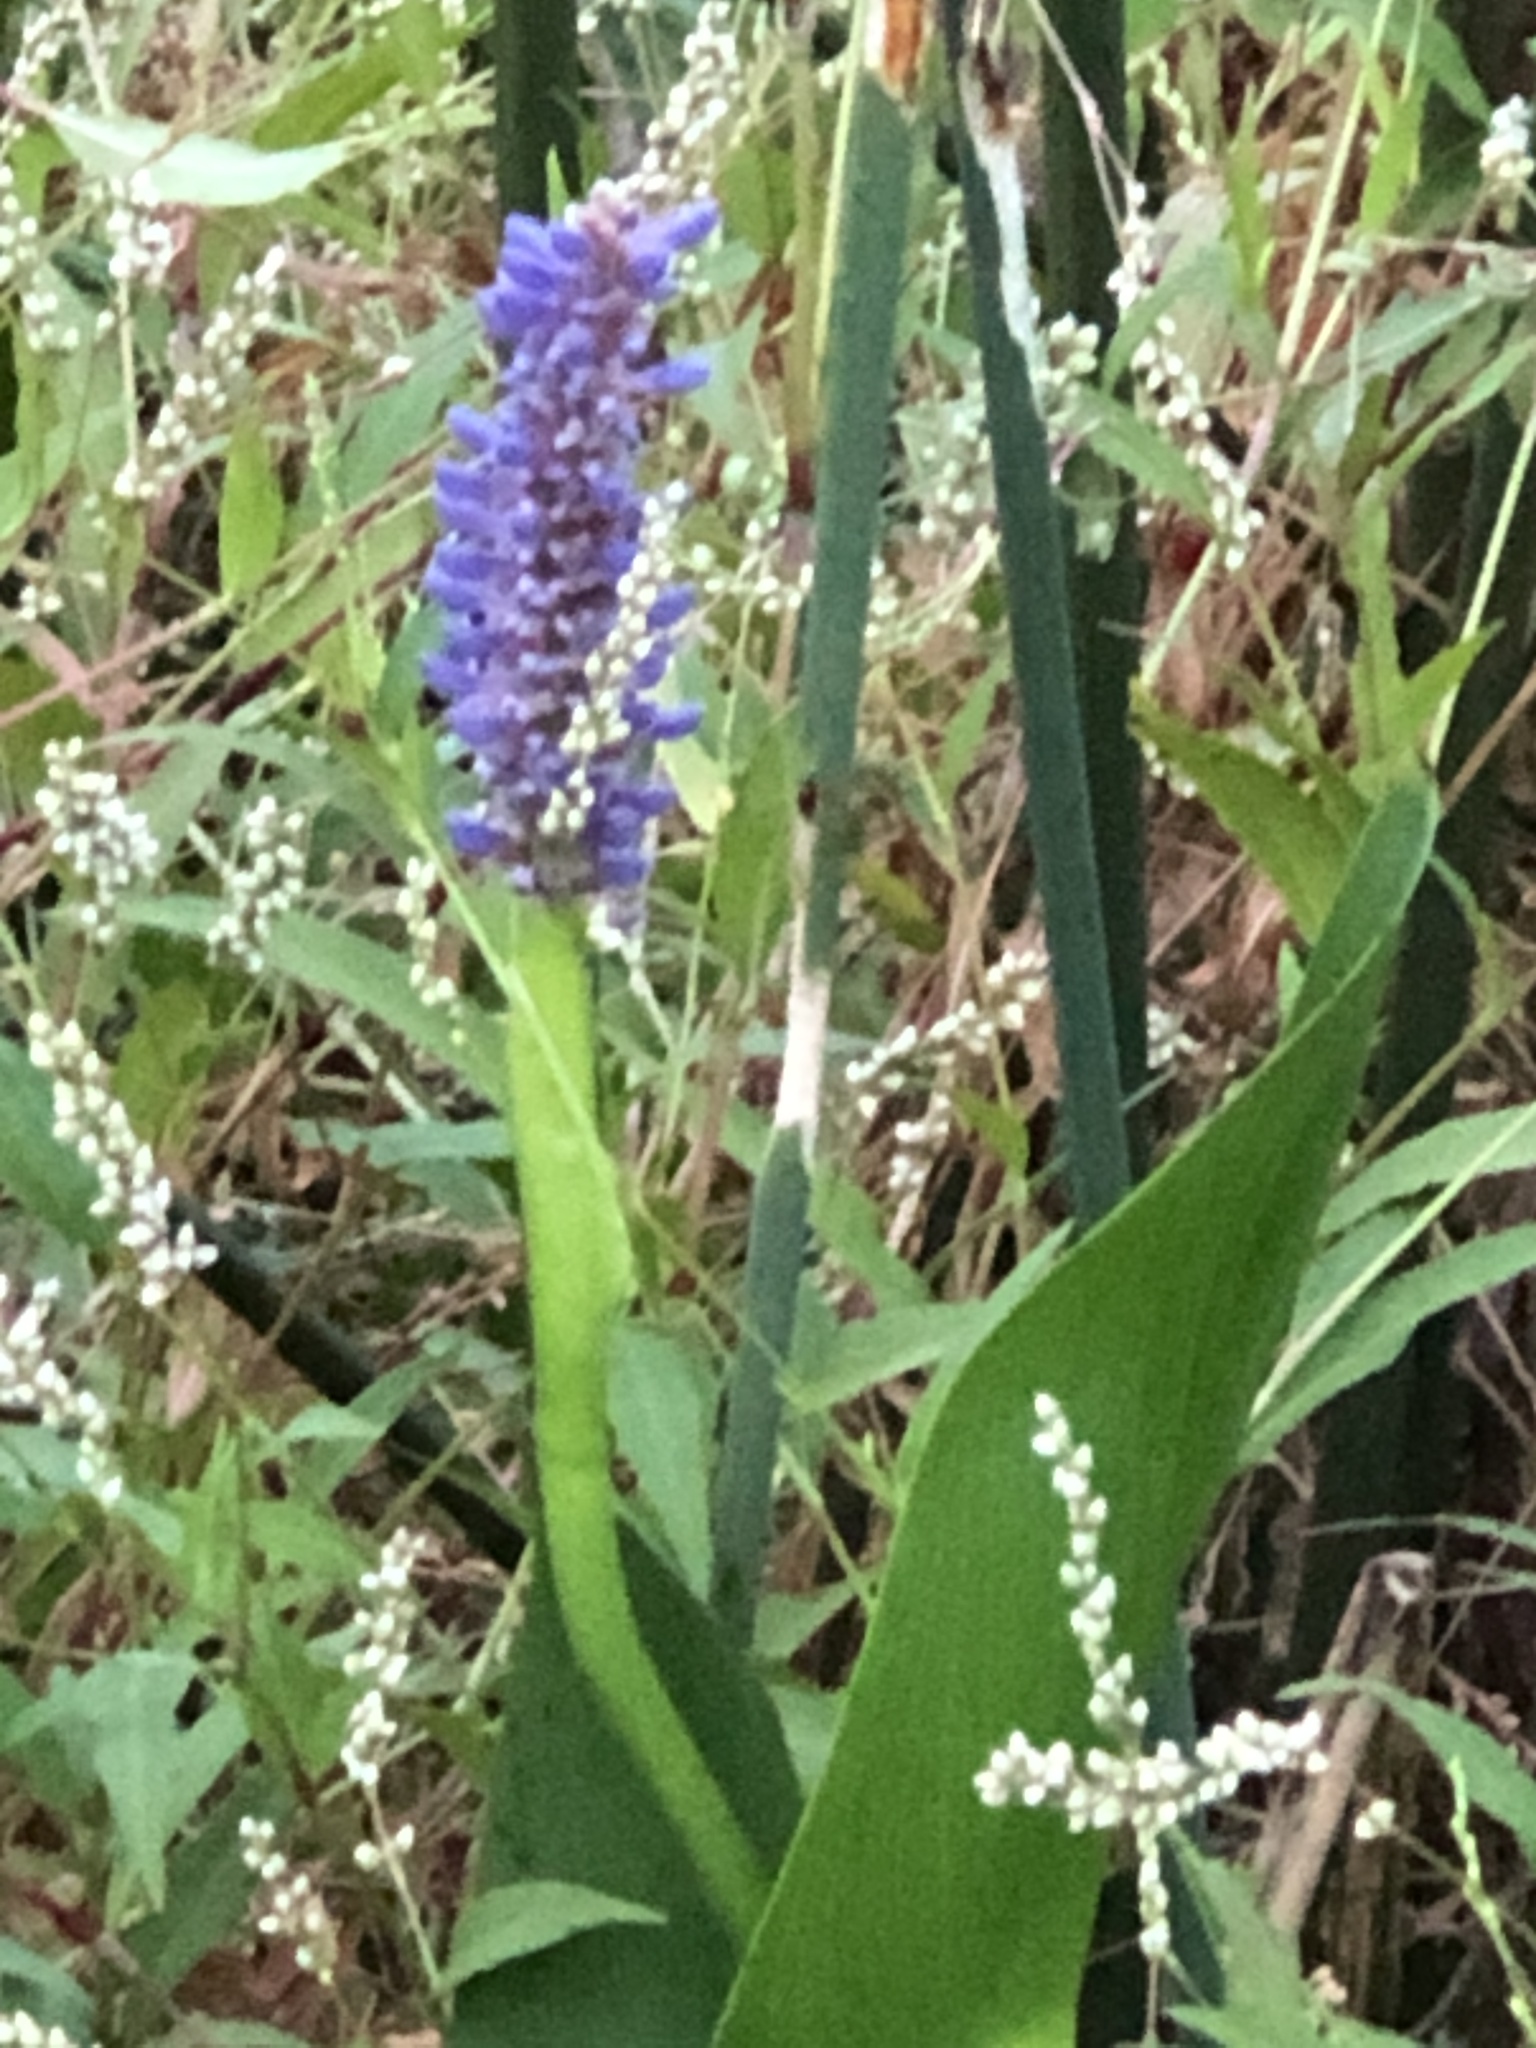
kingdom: Plantae
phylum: Tracheophyta
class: Liliopsida
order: Commelinales
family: Pontederiaceae
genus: Pontederia
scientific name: Pontederia cordata
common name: Pickerelweed
